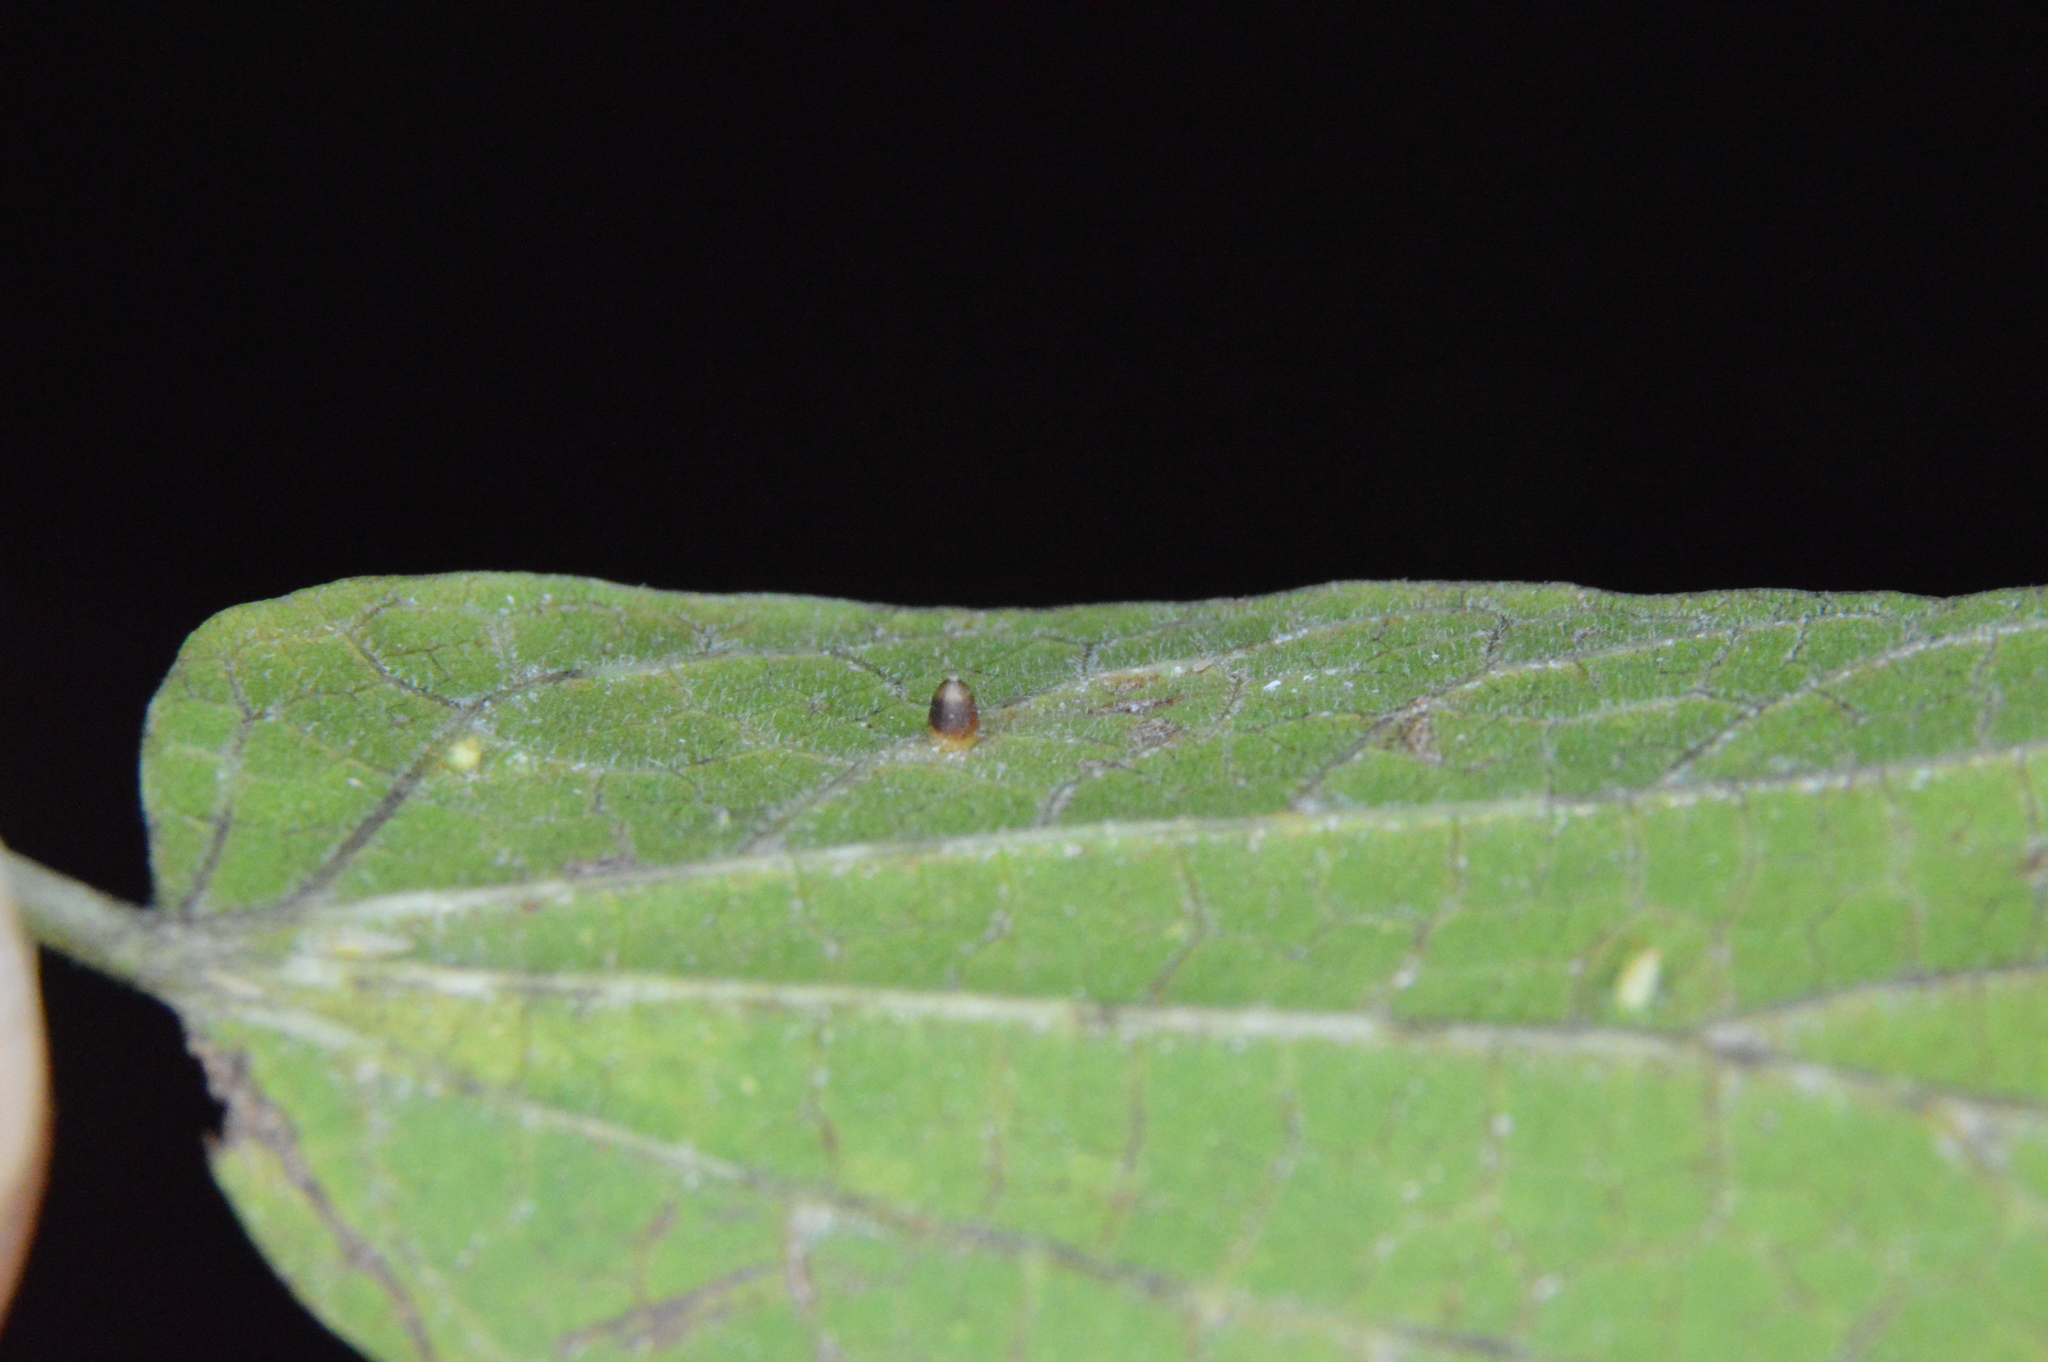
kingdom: Animalia
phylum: Arthropoda
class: Insecta
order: Diptera
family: Cecidomyiidae
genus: Celticecis
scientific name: Celticecis cupiformis
